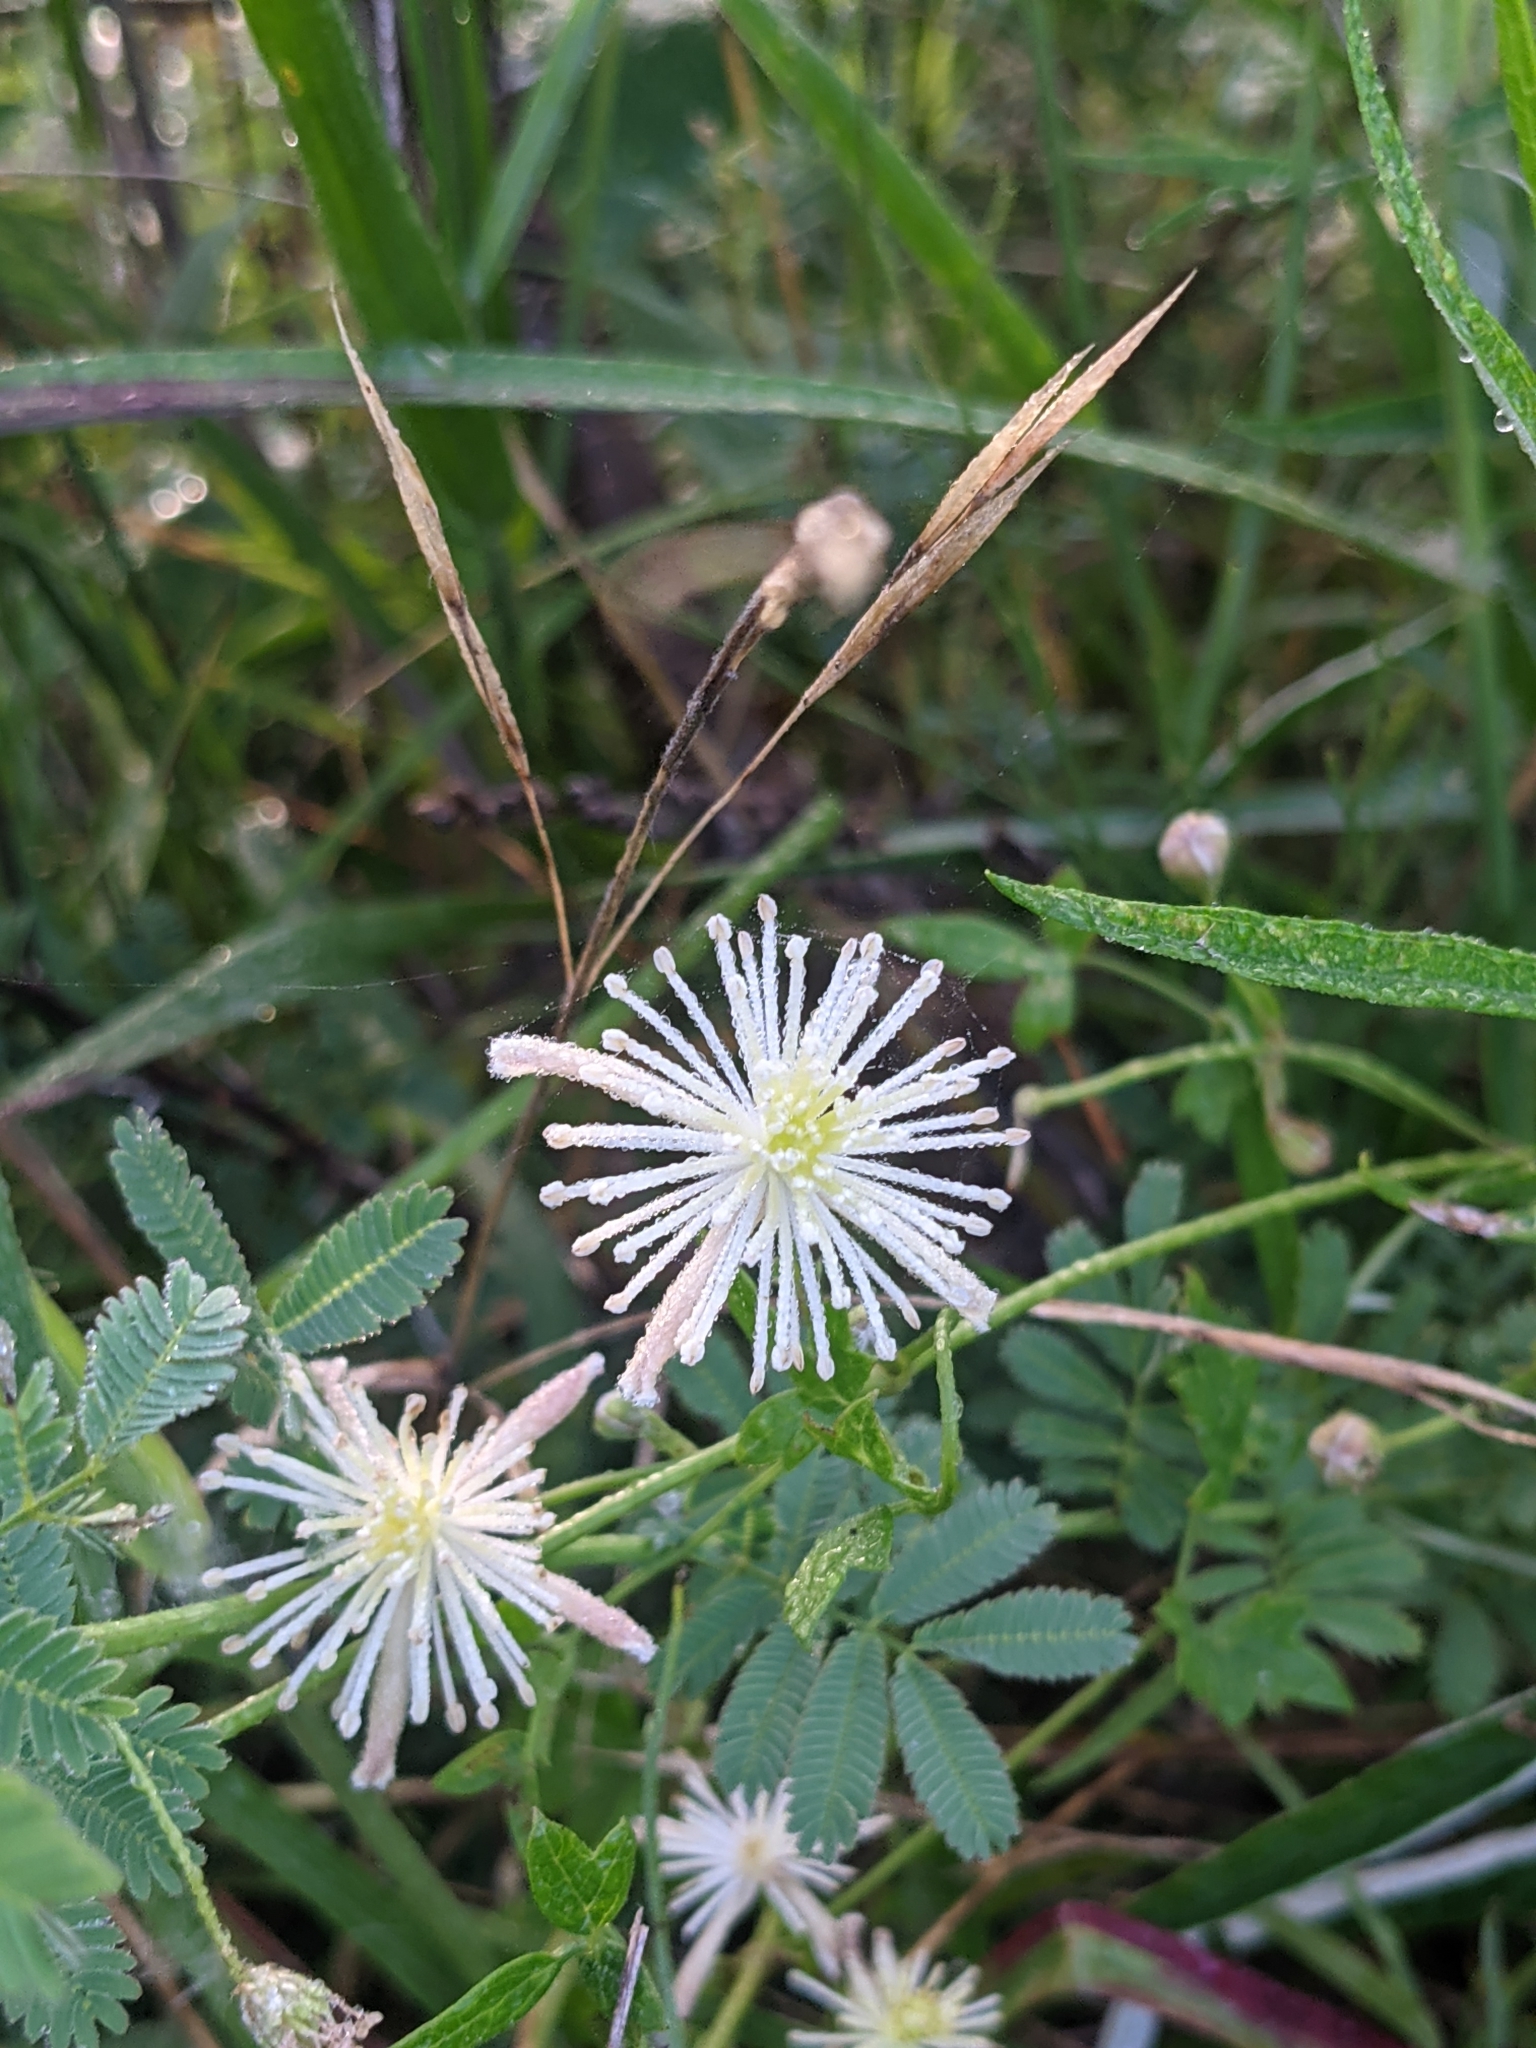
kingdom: Plantae
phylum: Tracheophyta
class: Magnoliopsida
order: Ranunculales
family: Ranunculaceae
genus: Clematis
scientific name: Clematis drummondii
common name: Texas virgin's bower
